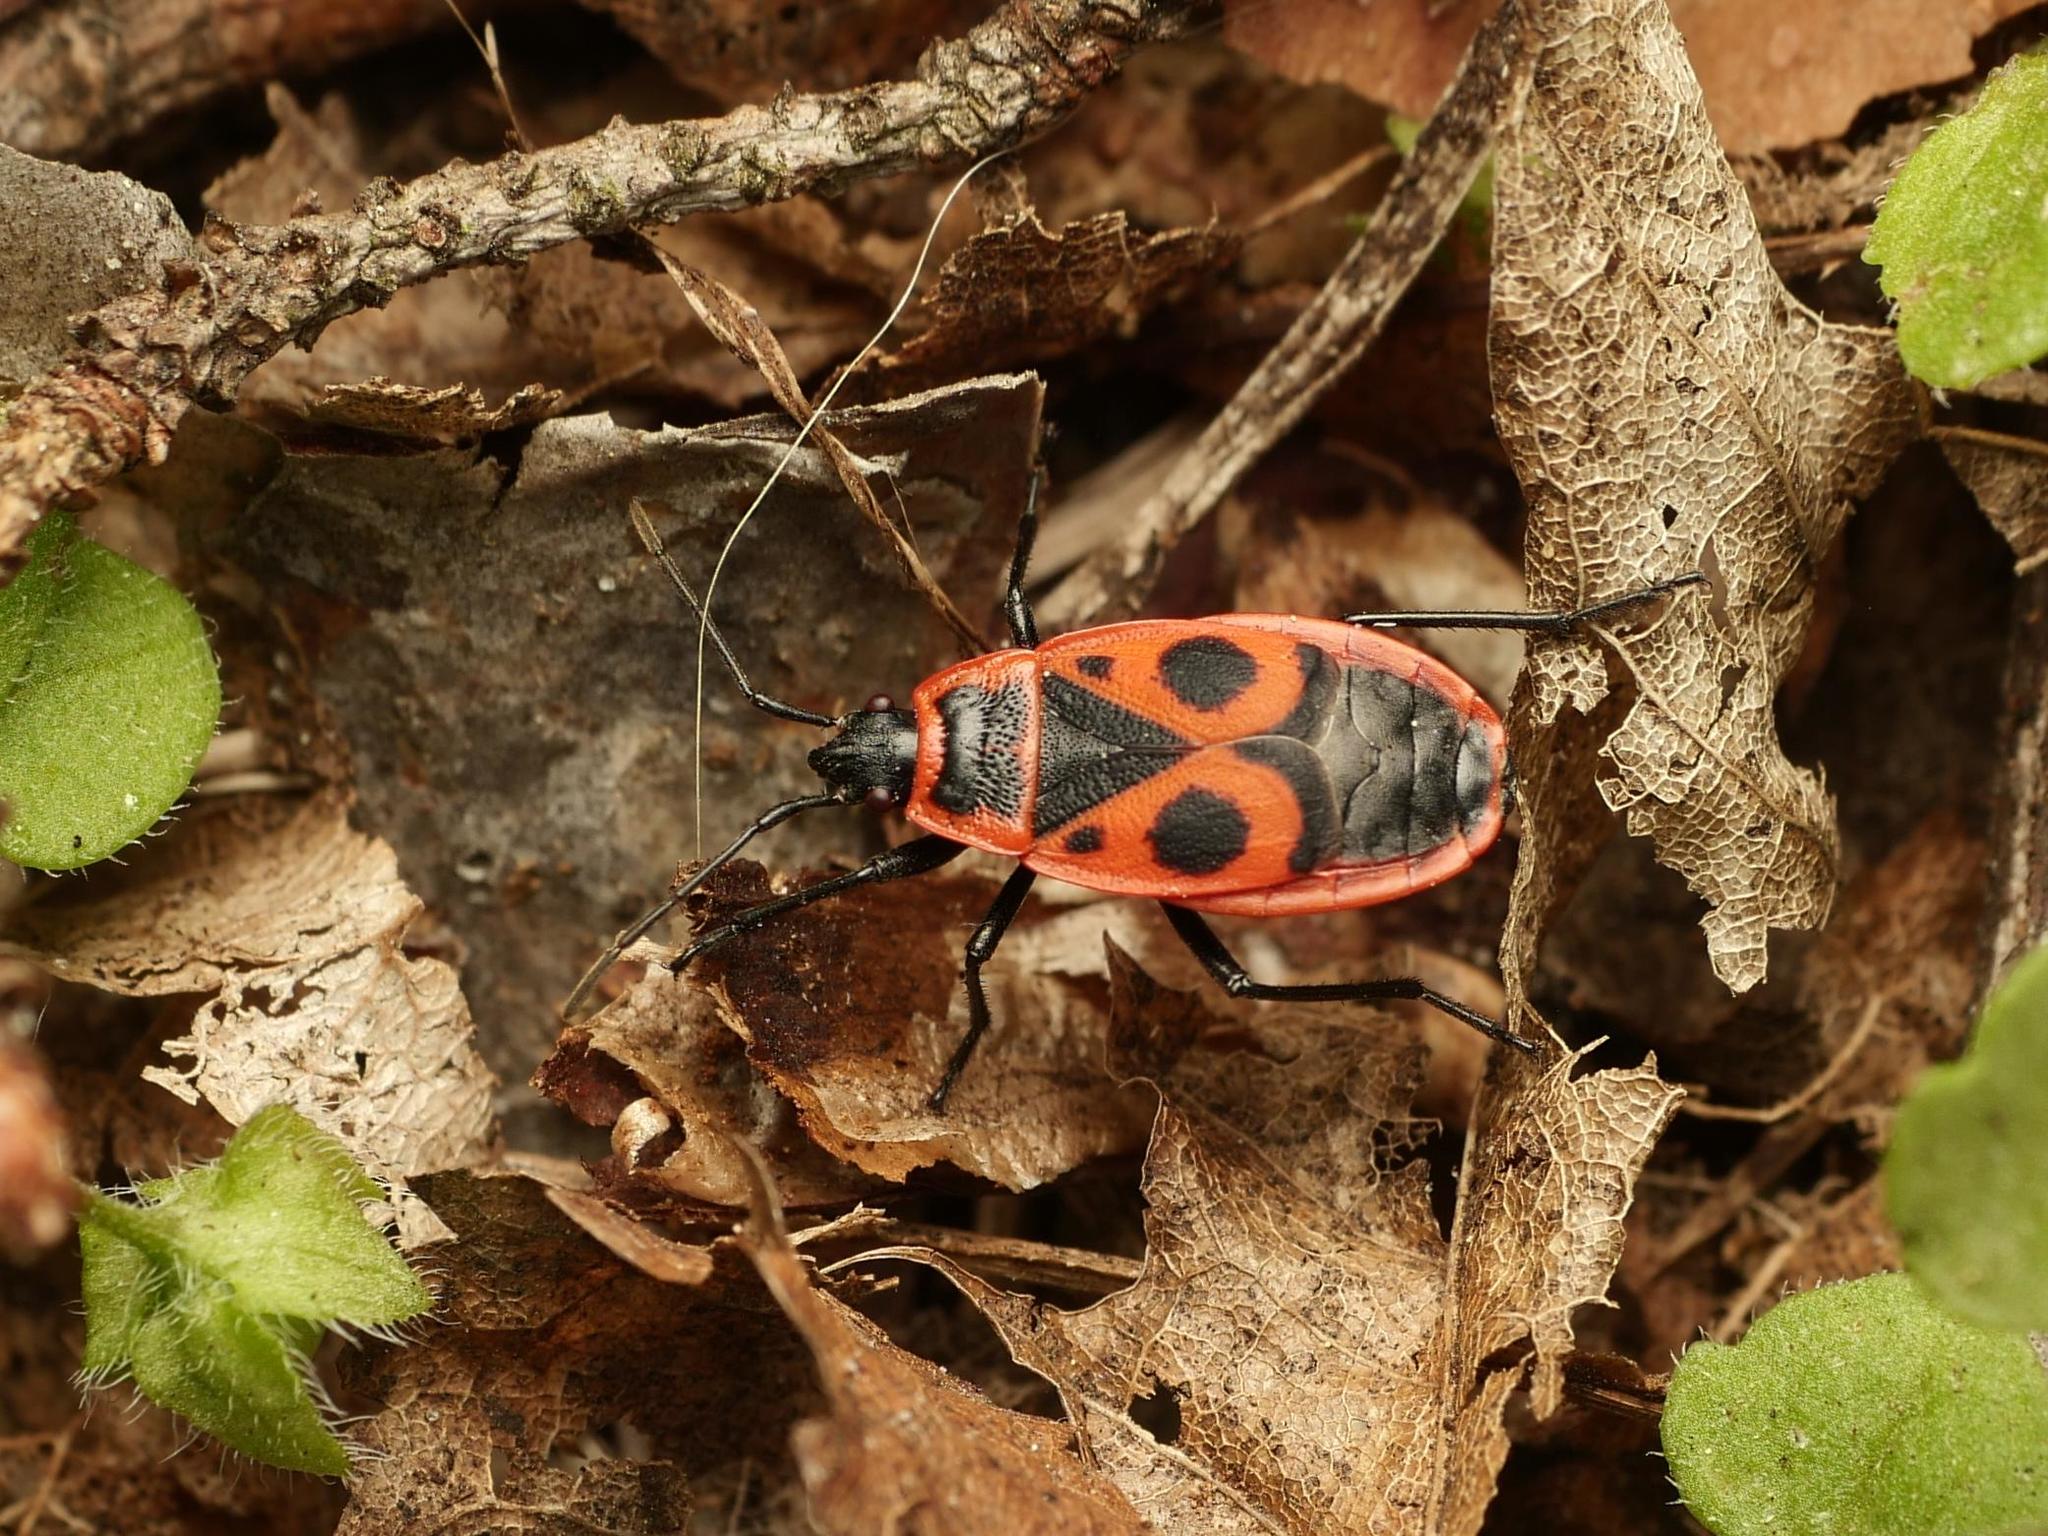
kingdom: Animalia
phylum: Arthropoda
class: Insecta
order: Hemiptera
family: Pyrrhocoridae
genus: Pyrrhocoris
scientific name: Pyrrhocoris apterus
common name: Firebug
